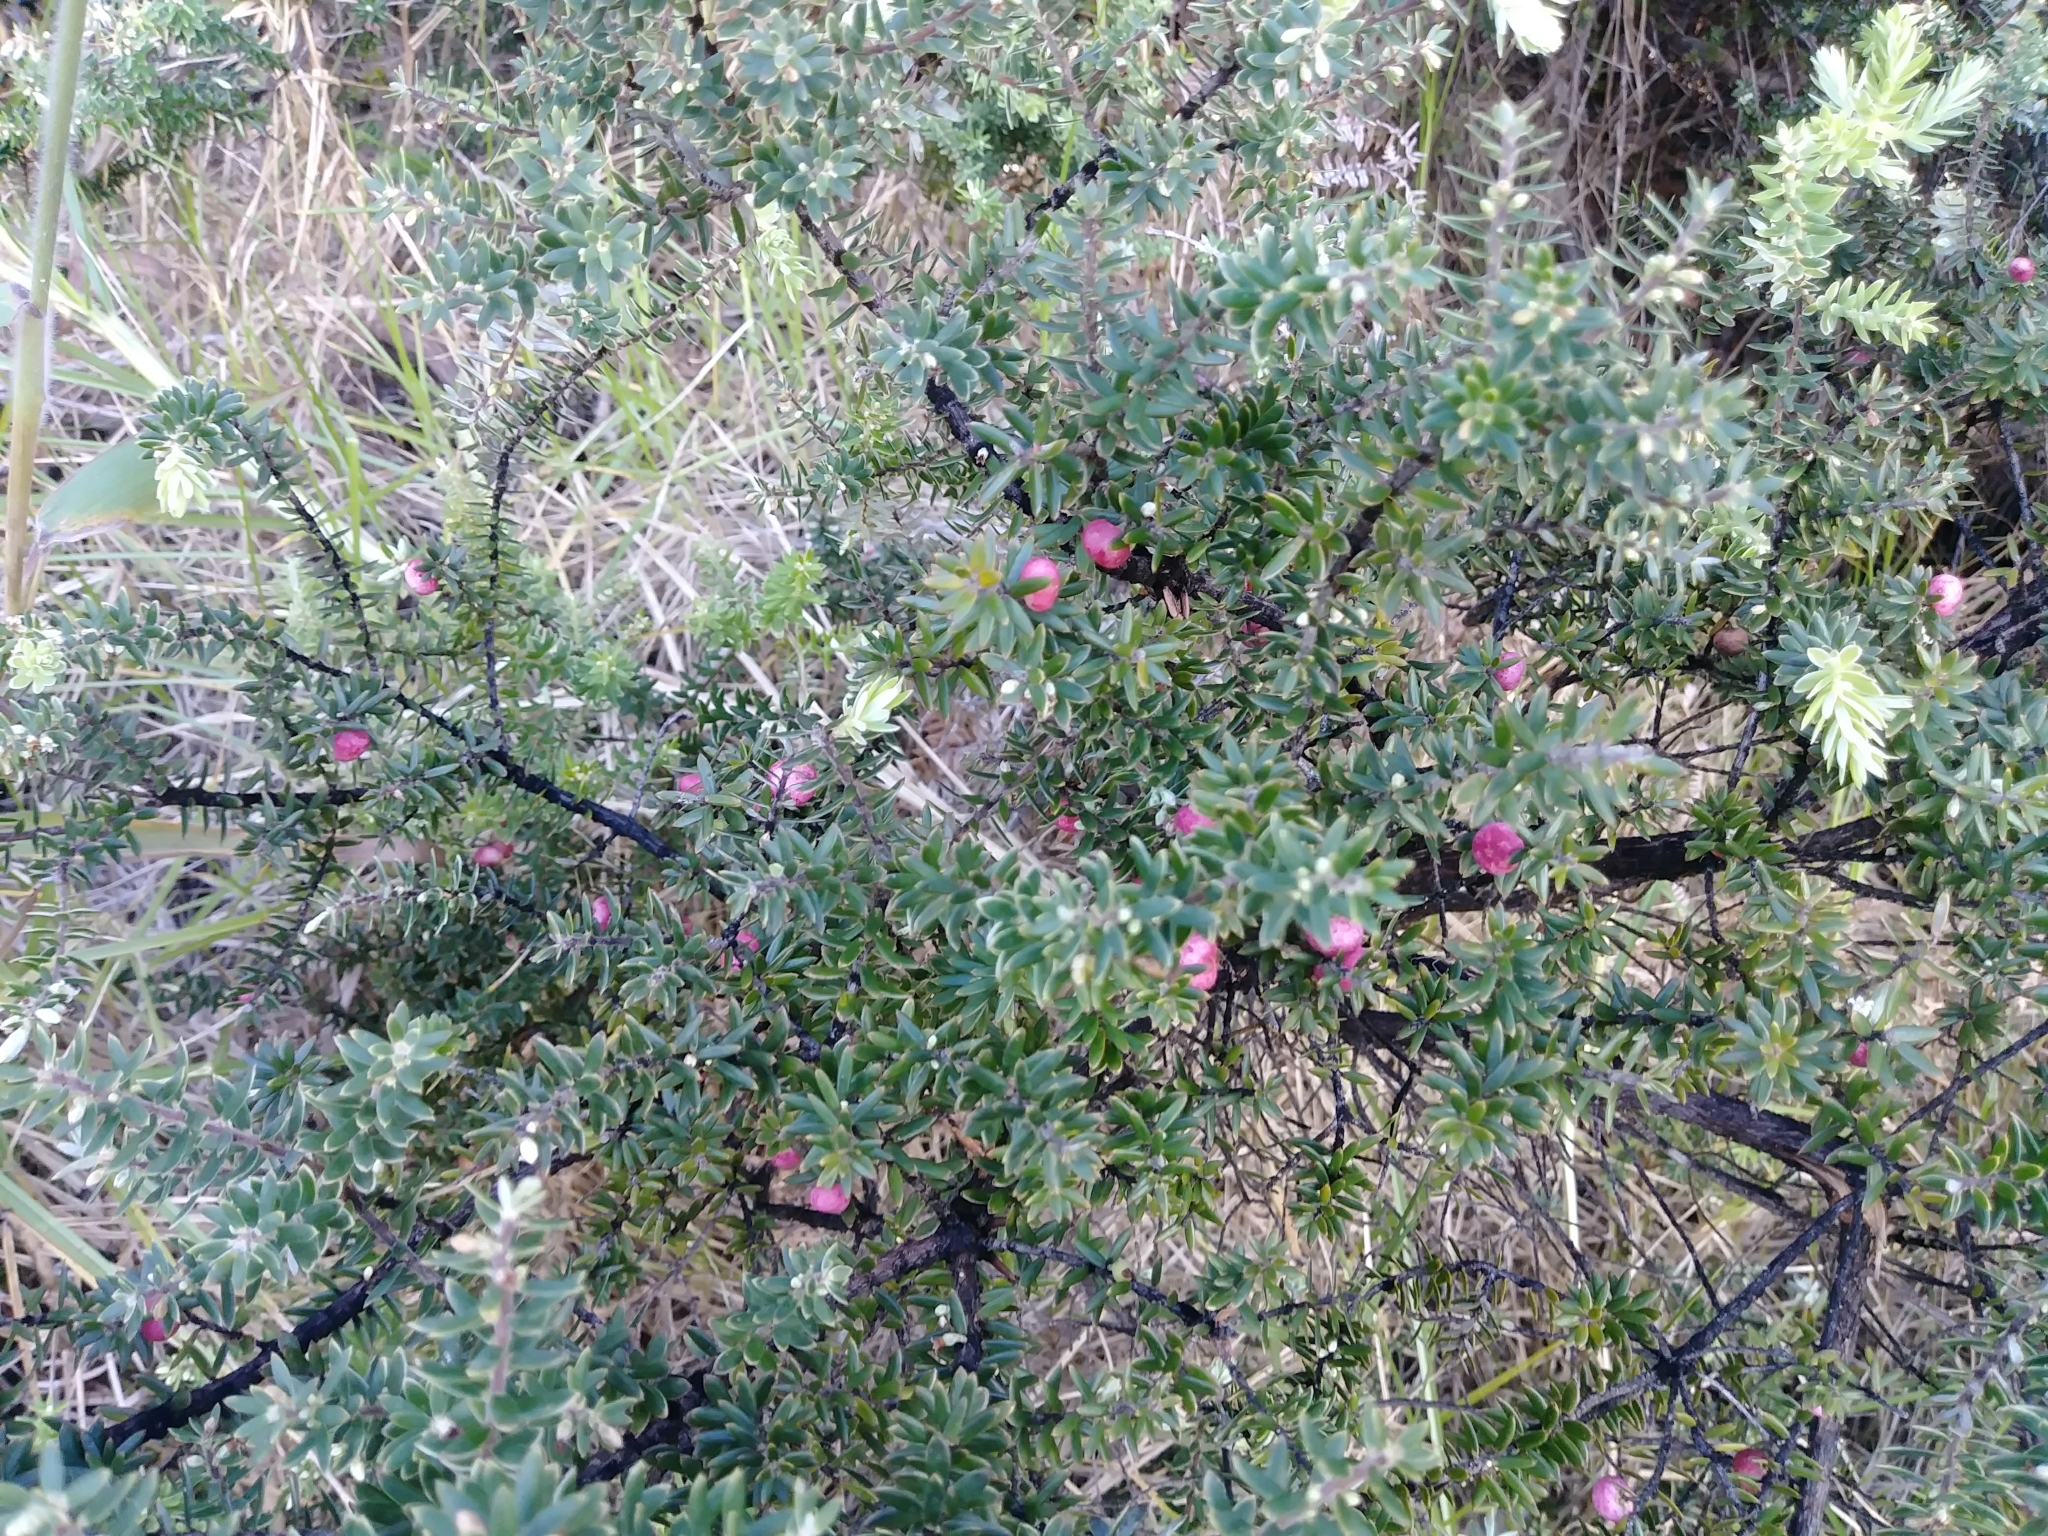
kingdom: Plantae
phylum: Tracheophyta
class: Magnoliopsida
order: Ericales
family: Ericaceae
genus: Leptecophylla
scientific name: Leptecophylla tameiameiae
